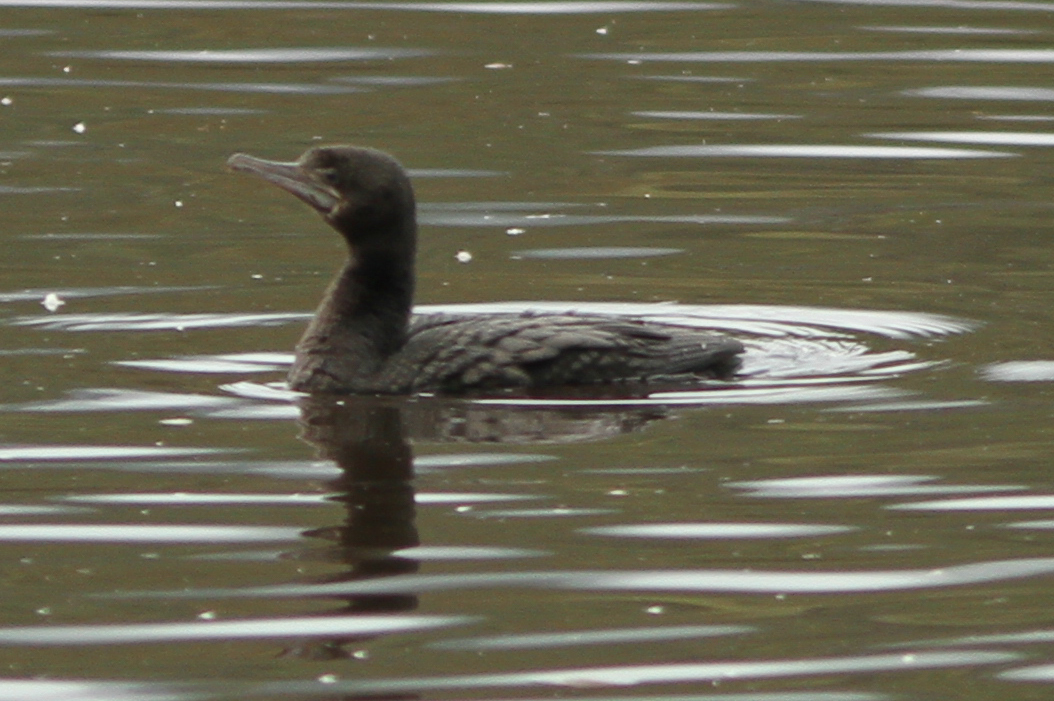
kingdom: Animalia
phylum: Chordata
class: Aves
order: Suliformes
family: Phalacrocoracidae
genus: Phalacrocorax
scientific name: Phalacrocorax sulcirostris
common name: Little black cormorant
